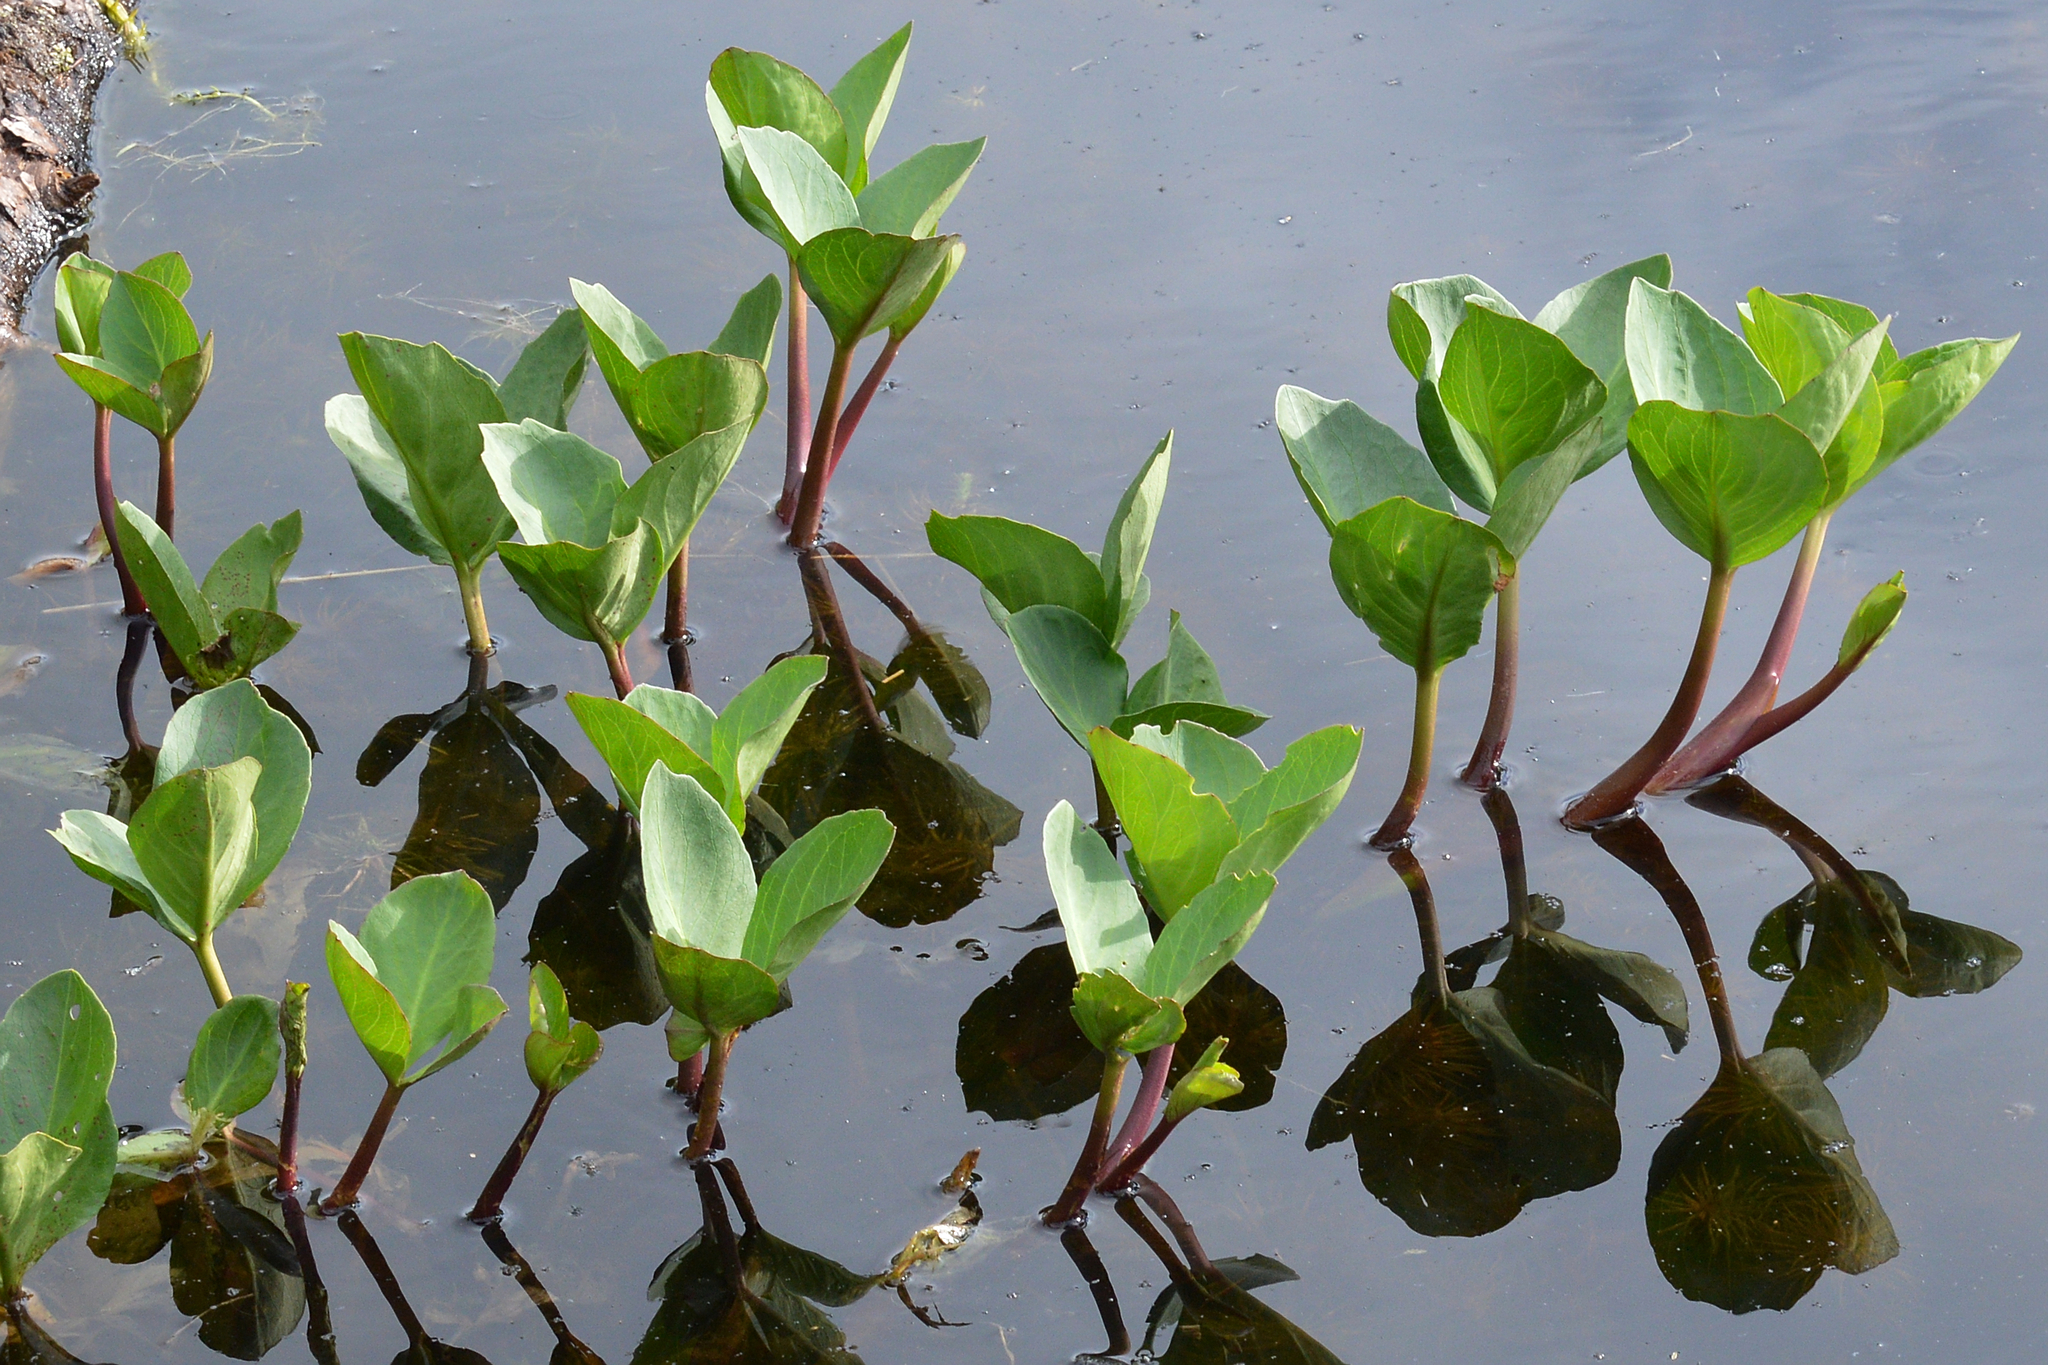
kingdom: Plantae
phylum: Tracheophyta
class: Magnoliopsida
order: Asterales
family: Menyanthaceae
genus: Menyanthes
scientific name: Menyanthes trifoliata
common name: Bogbean
